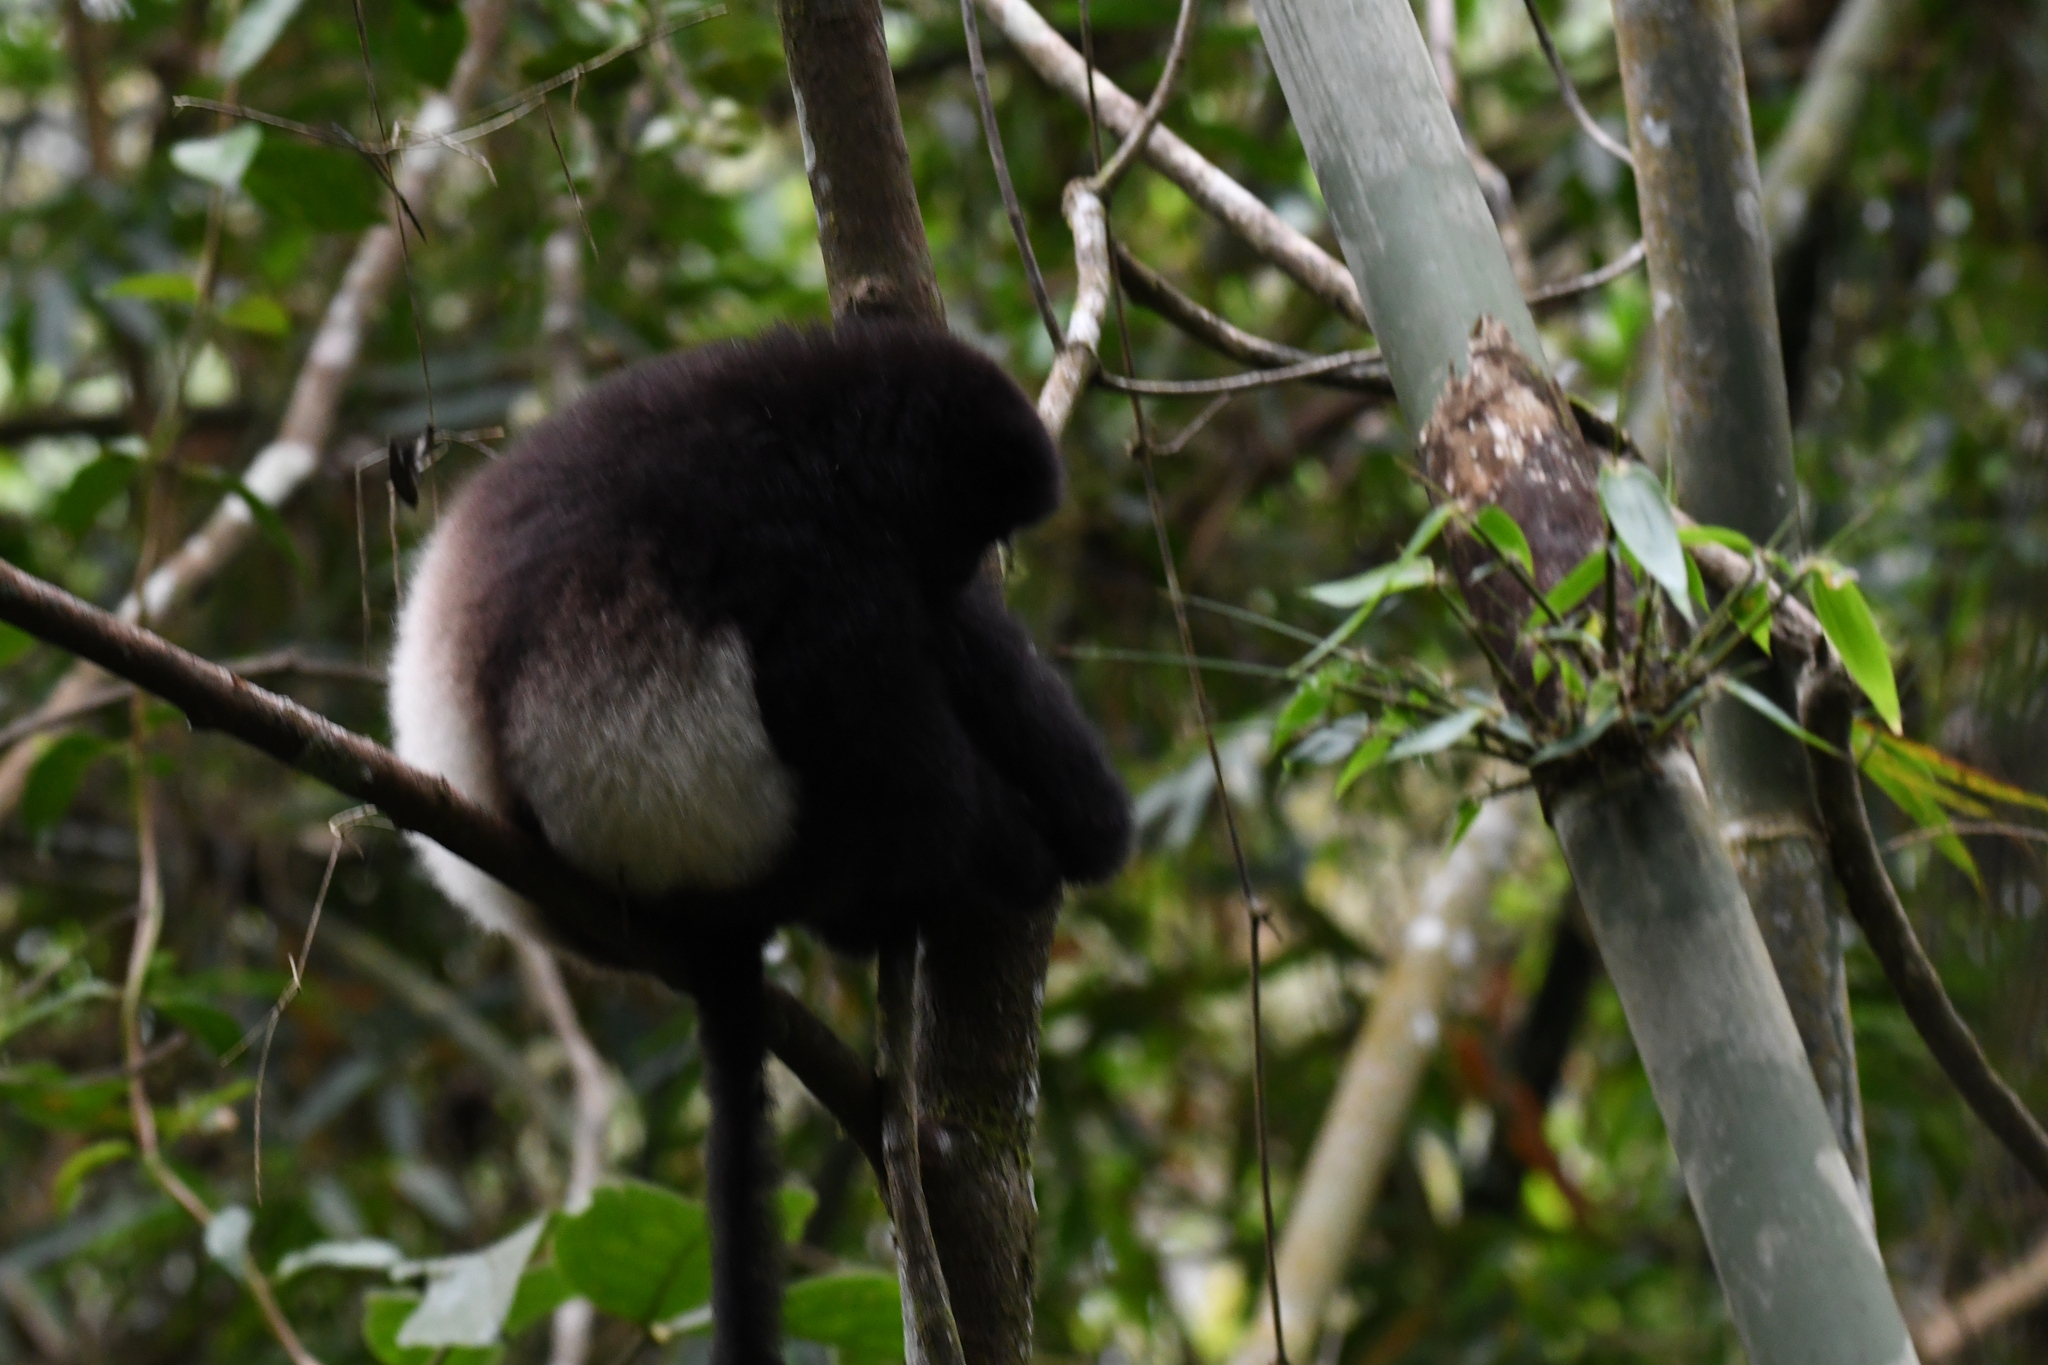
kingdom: Animalia
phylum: Chordata
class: Mammalia
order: Primates
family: Indriidae
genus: Propithecus
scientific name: Propithecus edwardsi
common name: Milne-edwards’s simpona
